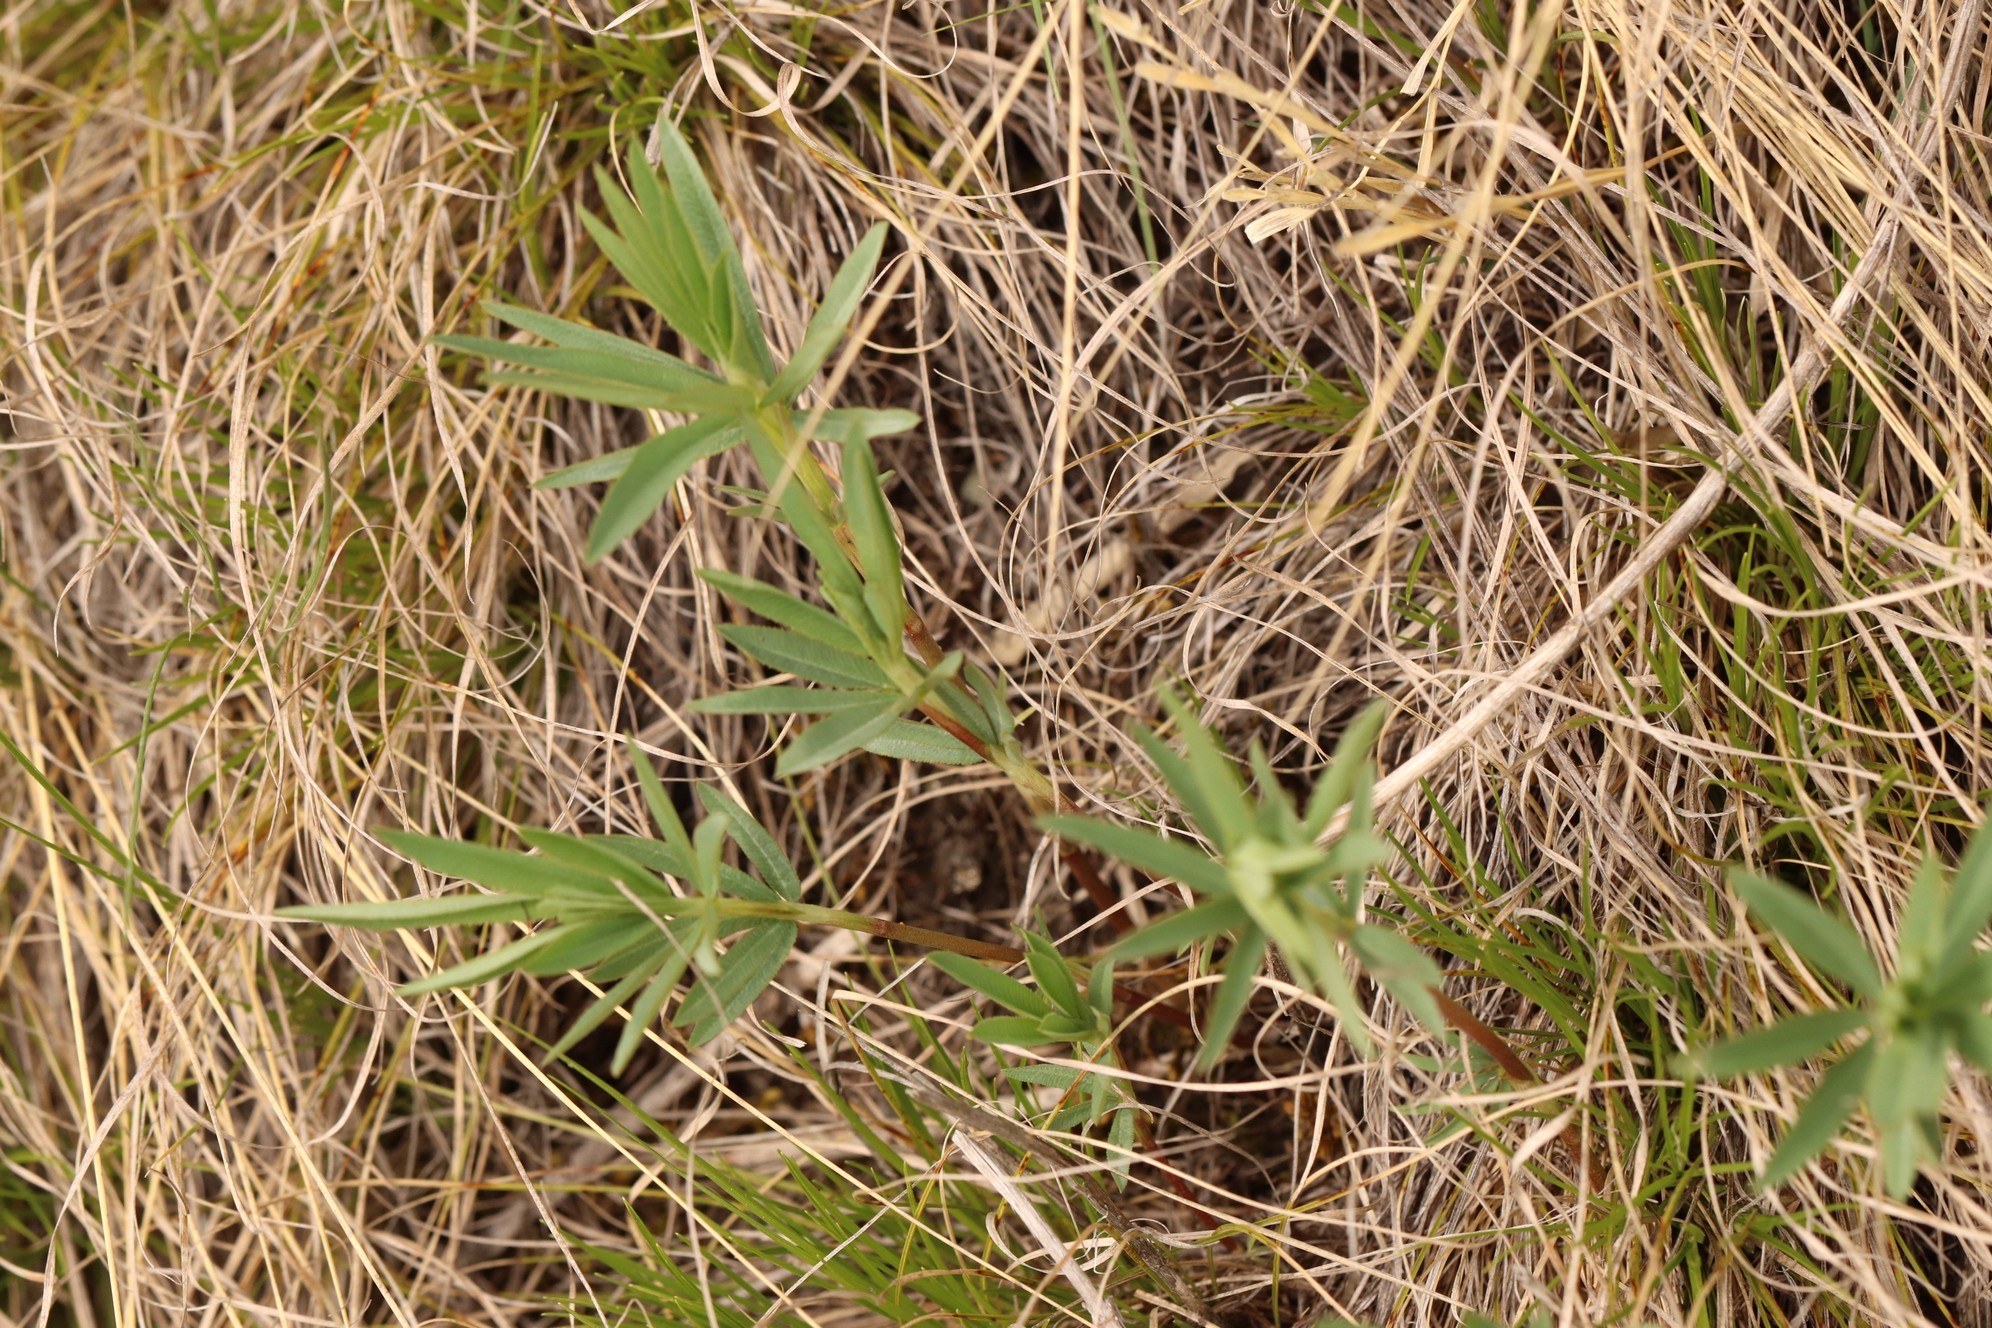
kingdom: Plantae
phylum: Tracheophyta
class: Magnoliopsida
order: Fabales
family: Fabaceae
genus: Trifolium
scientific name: Trifolium lupinaster
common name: Lupine clover
